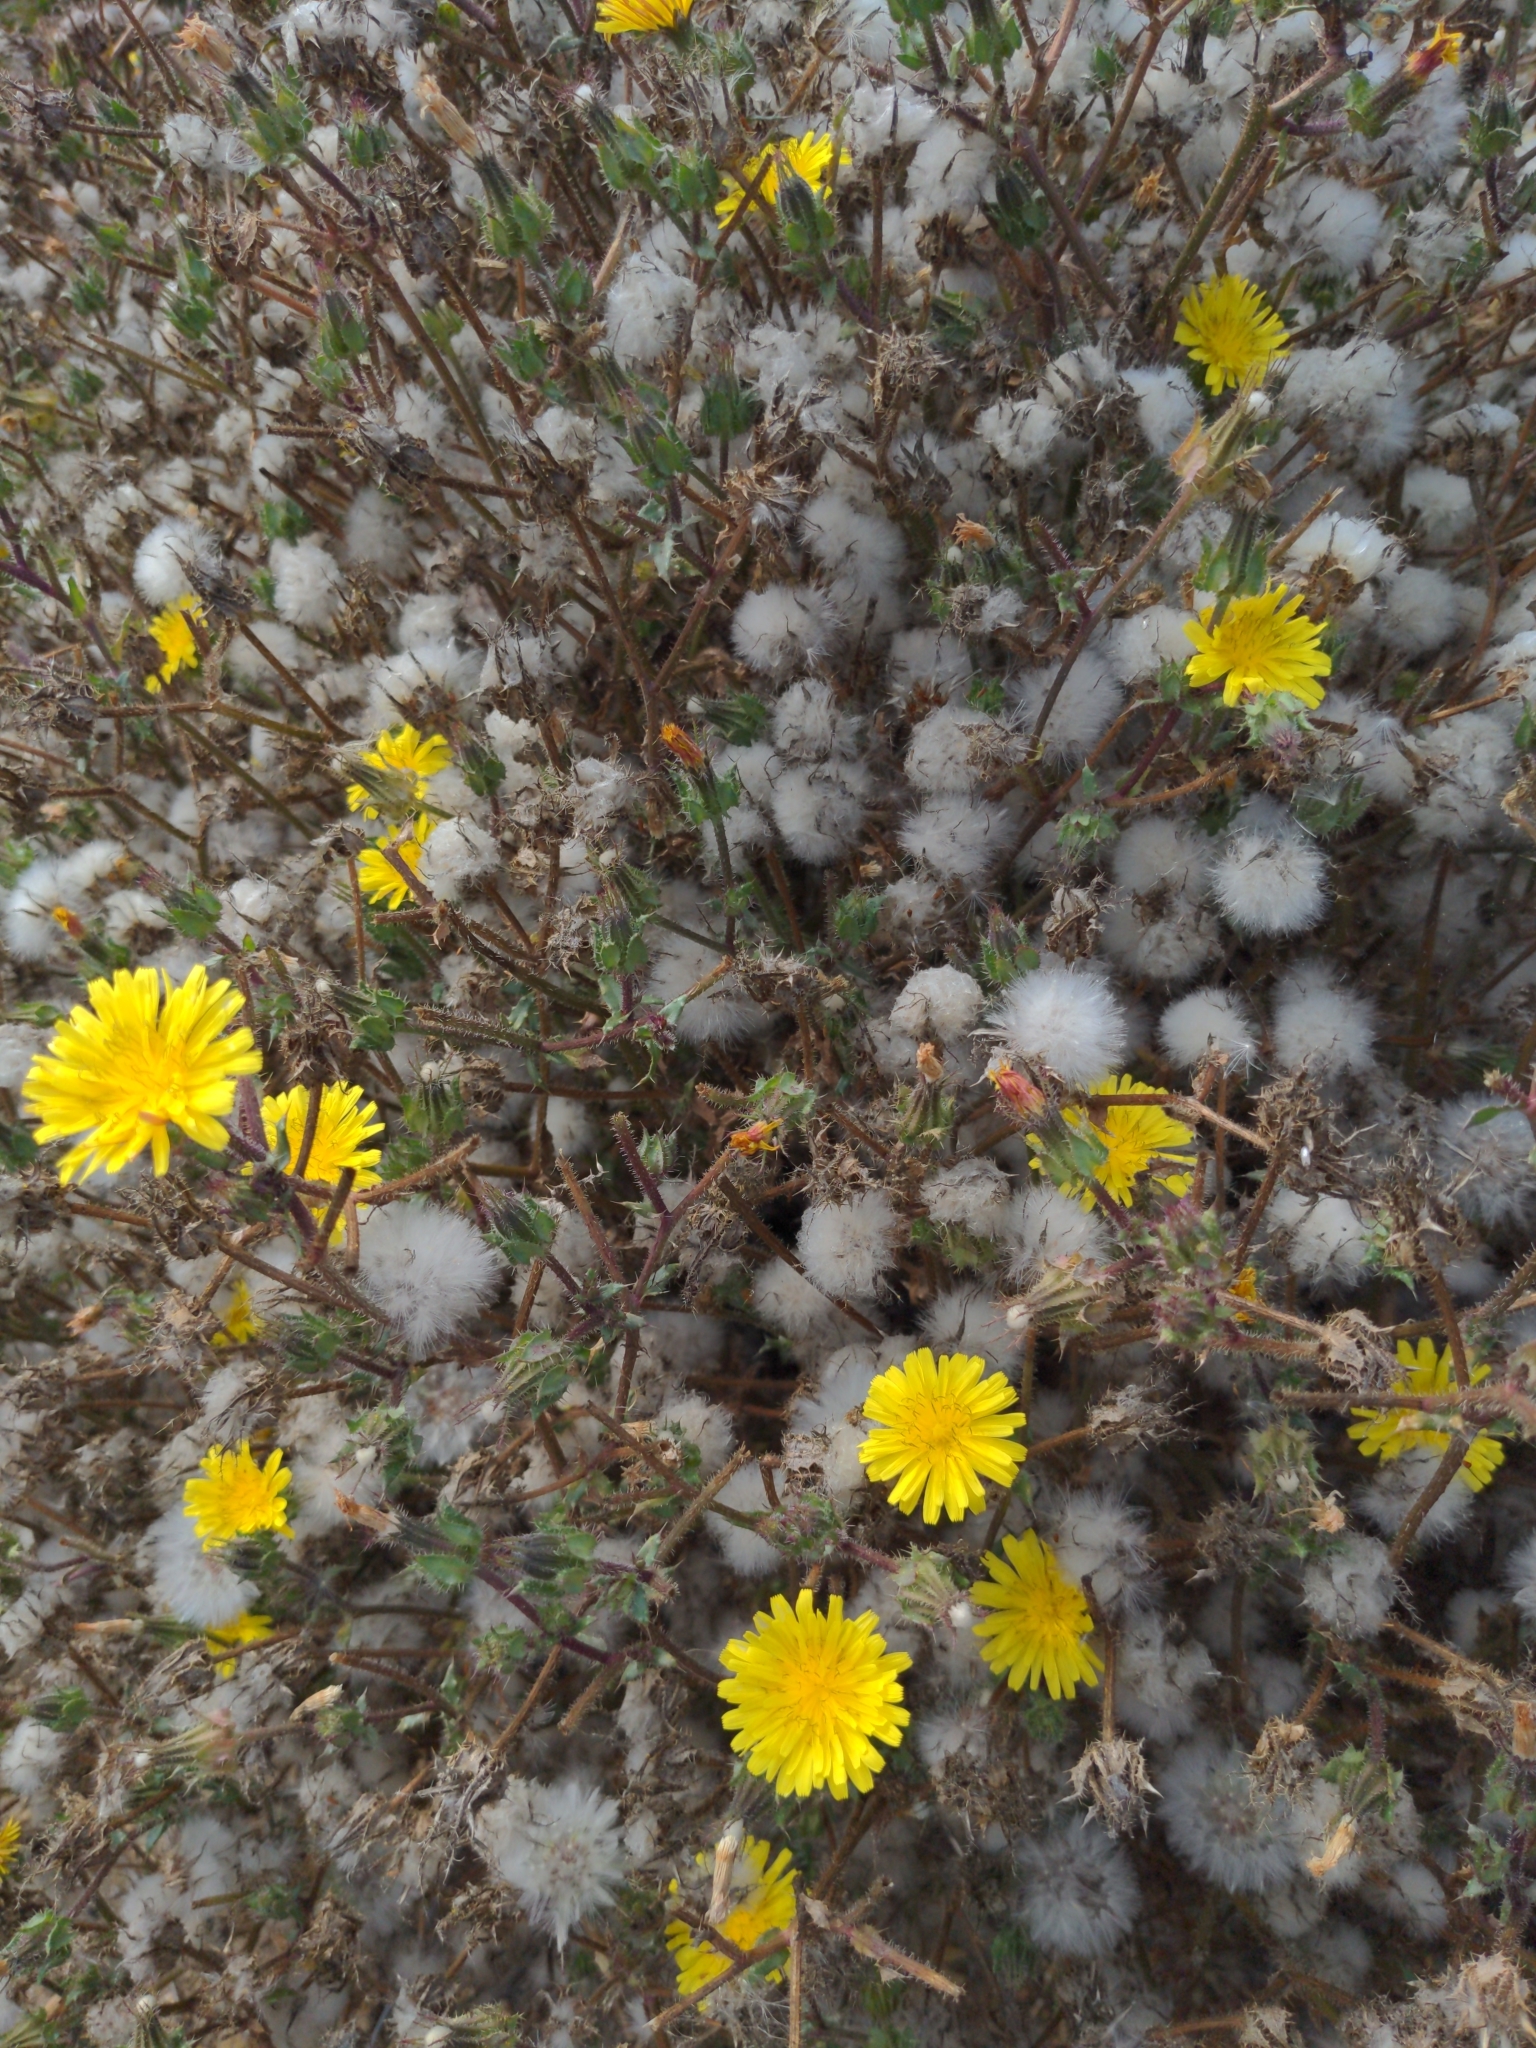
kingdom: Plantae
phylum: Tracheophyta
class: Magnoliopsida
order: Asterales
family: Asteraceae
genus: Helminthotheca
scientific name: Helminthotheca echioides
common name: Ox-tongue
